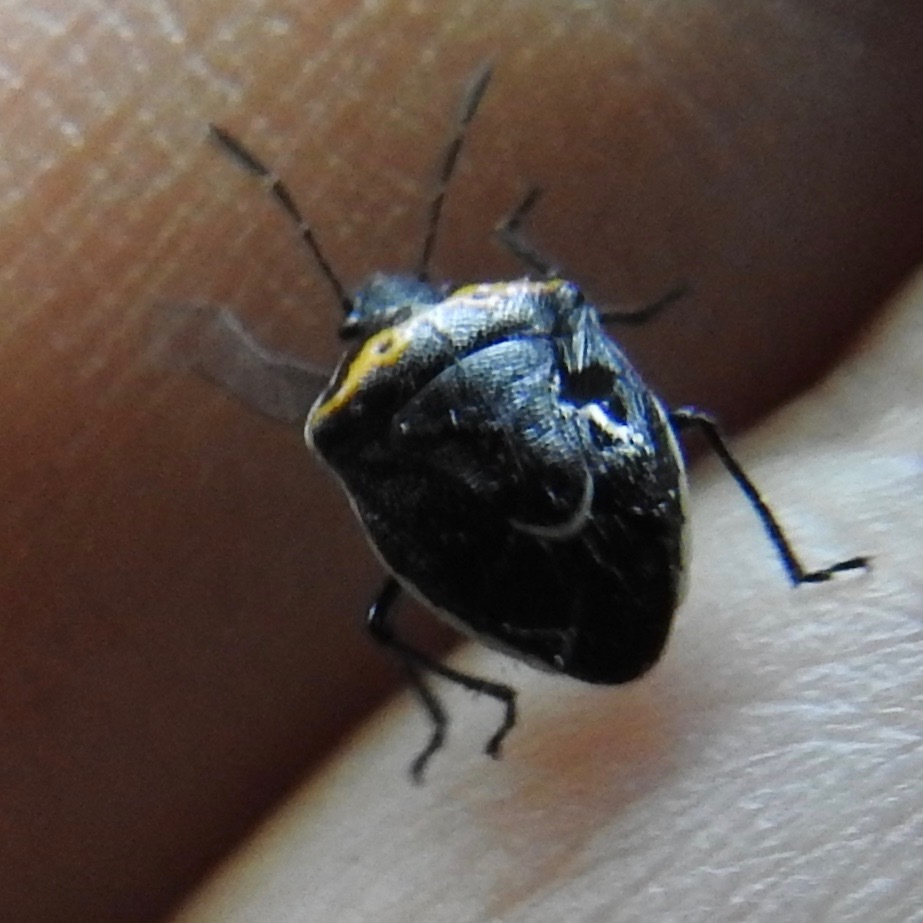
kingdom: Animalia
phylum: Arthropoda
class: Insecta
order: Hemiptera
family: Pentatomidae
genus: Cosmopepla
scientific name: Cosmopepla conspicillaris
